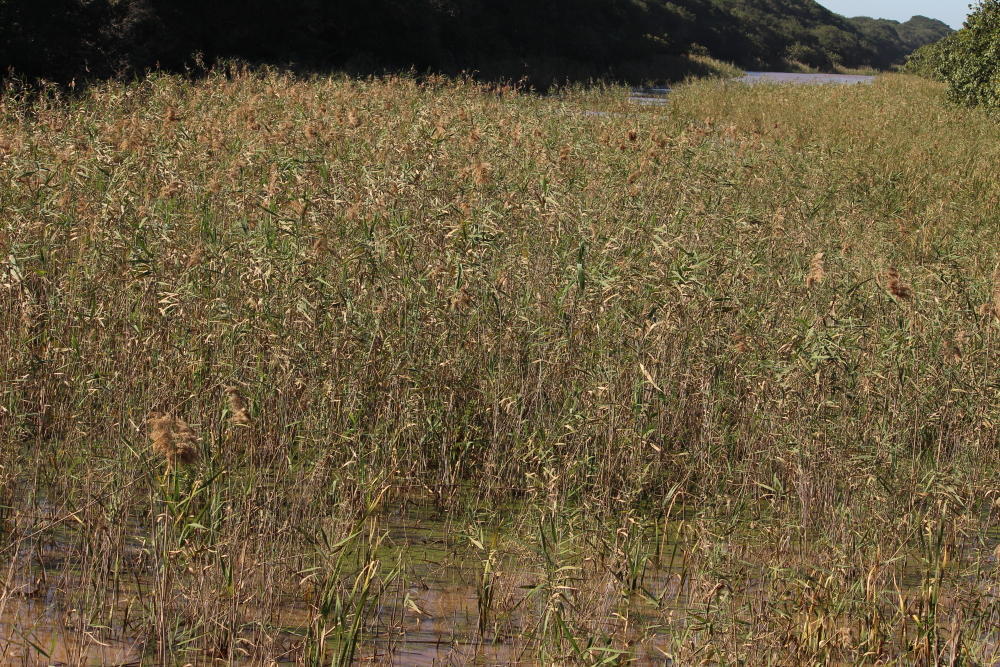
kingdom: Plantae
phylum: Tracheophyta
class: Liliopsida
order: Poales
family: Poaceae
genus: Phragmites
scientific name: Phragmites australis
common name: Common reed
